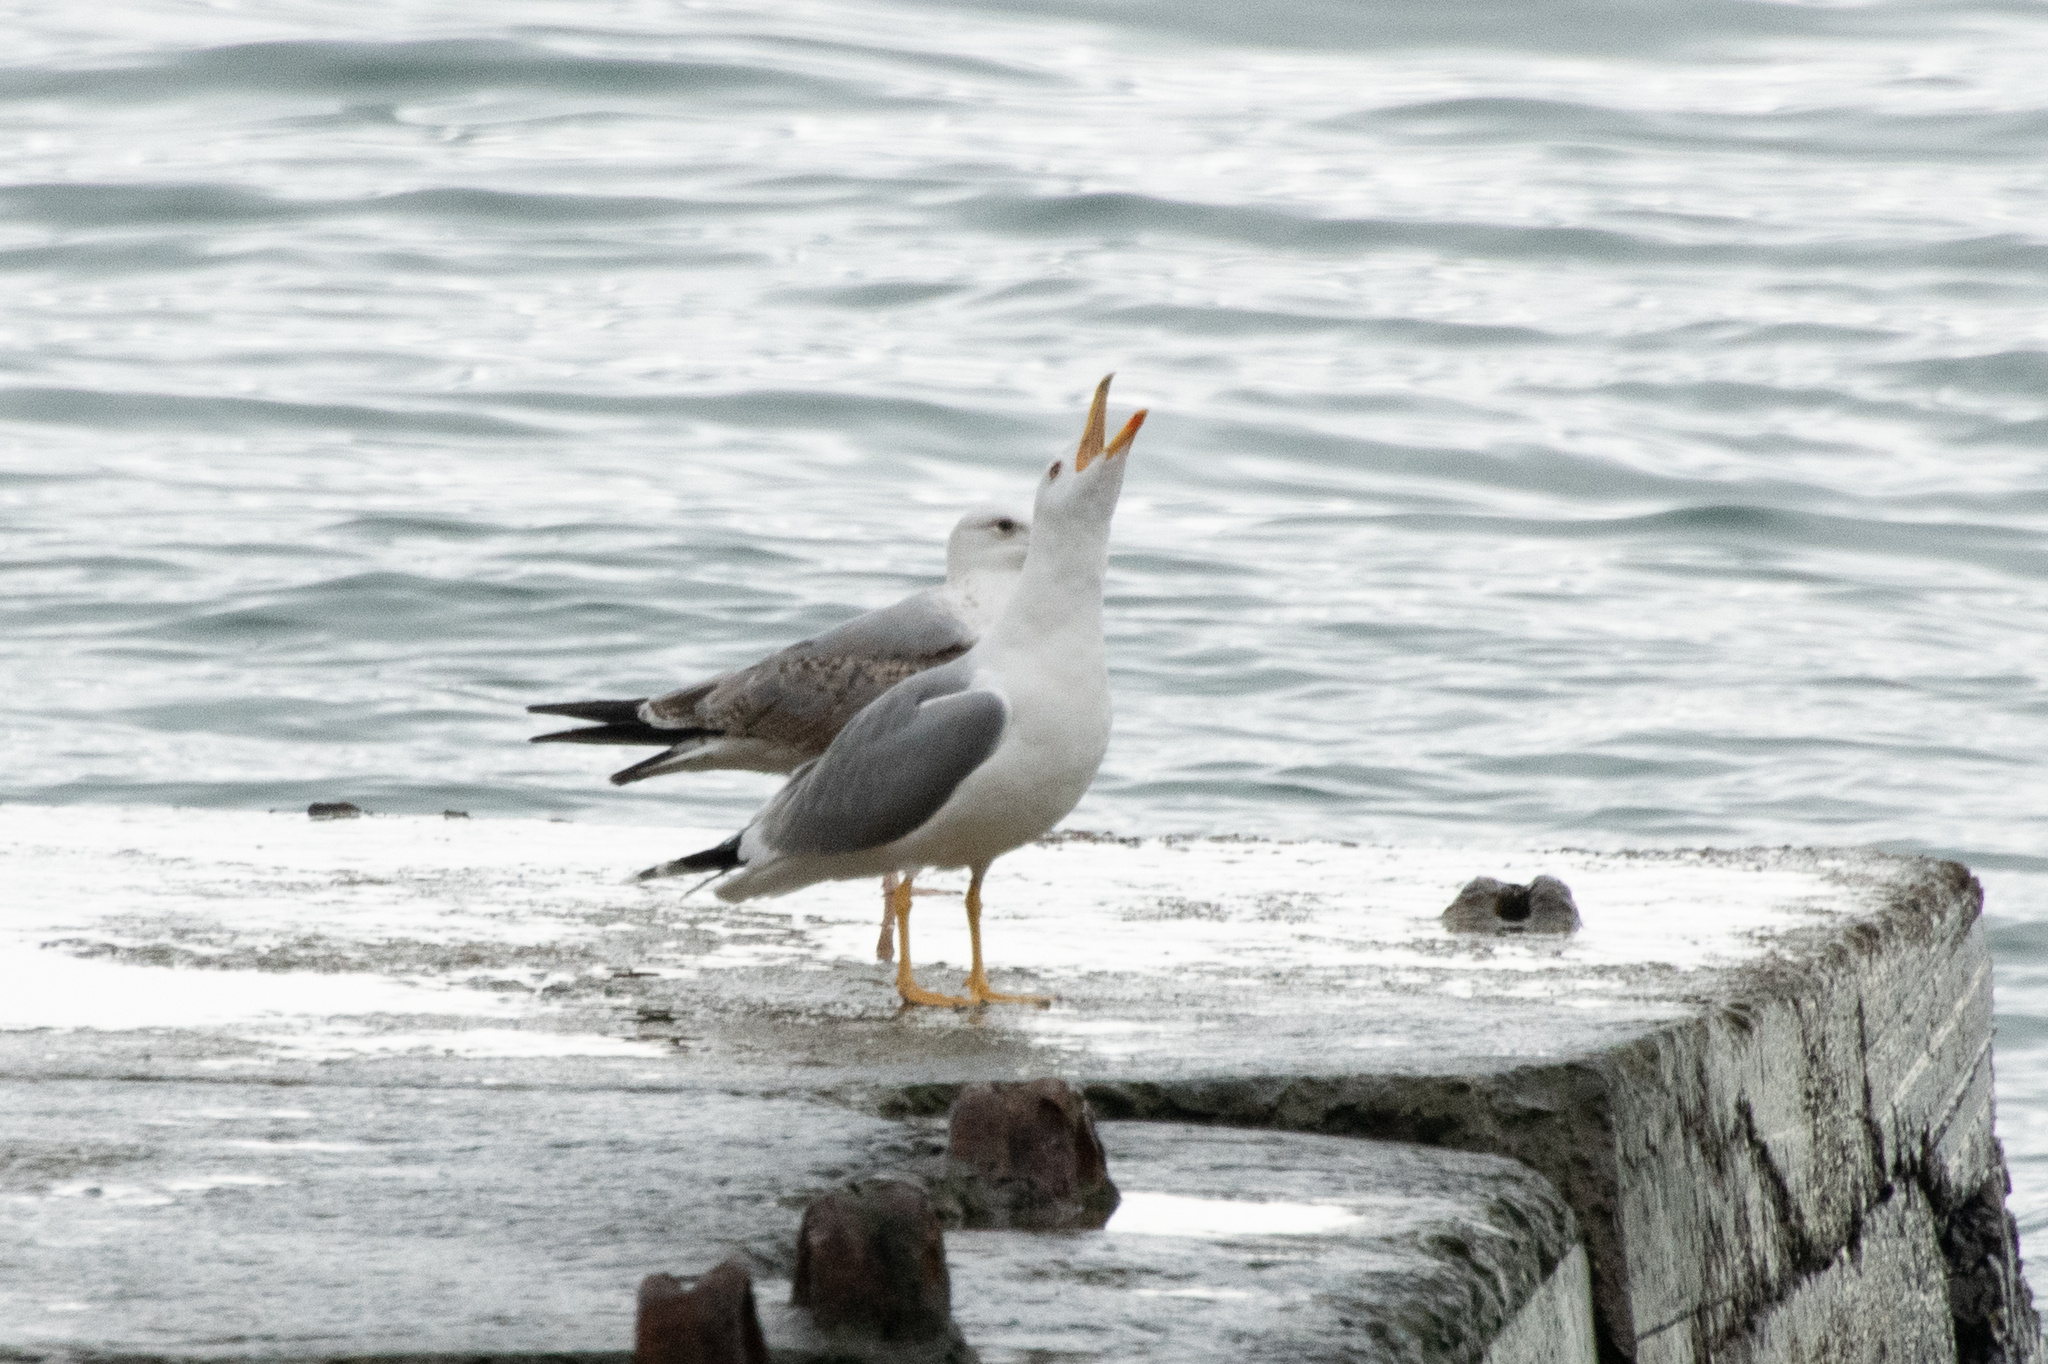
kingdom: Animalia
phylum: Chordata
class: Aves
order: Charadriiformes
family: Laridae
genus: Larus
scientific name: Larus michahellis
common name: Yellow-legged gull
